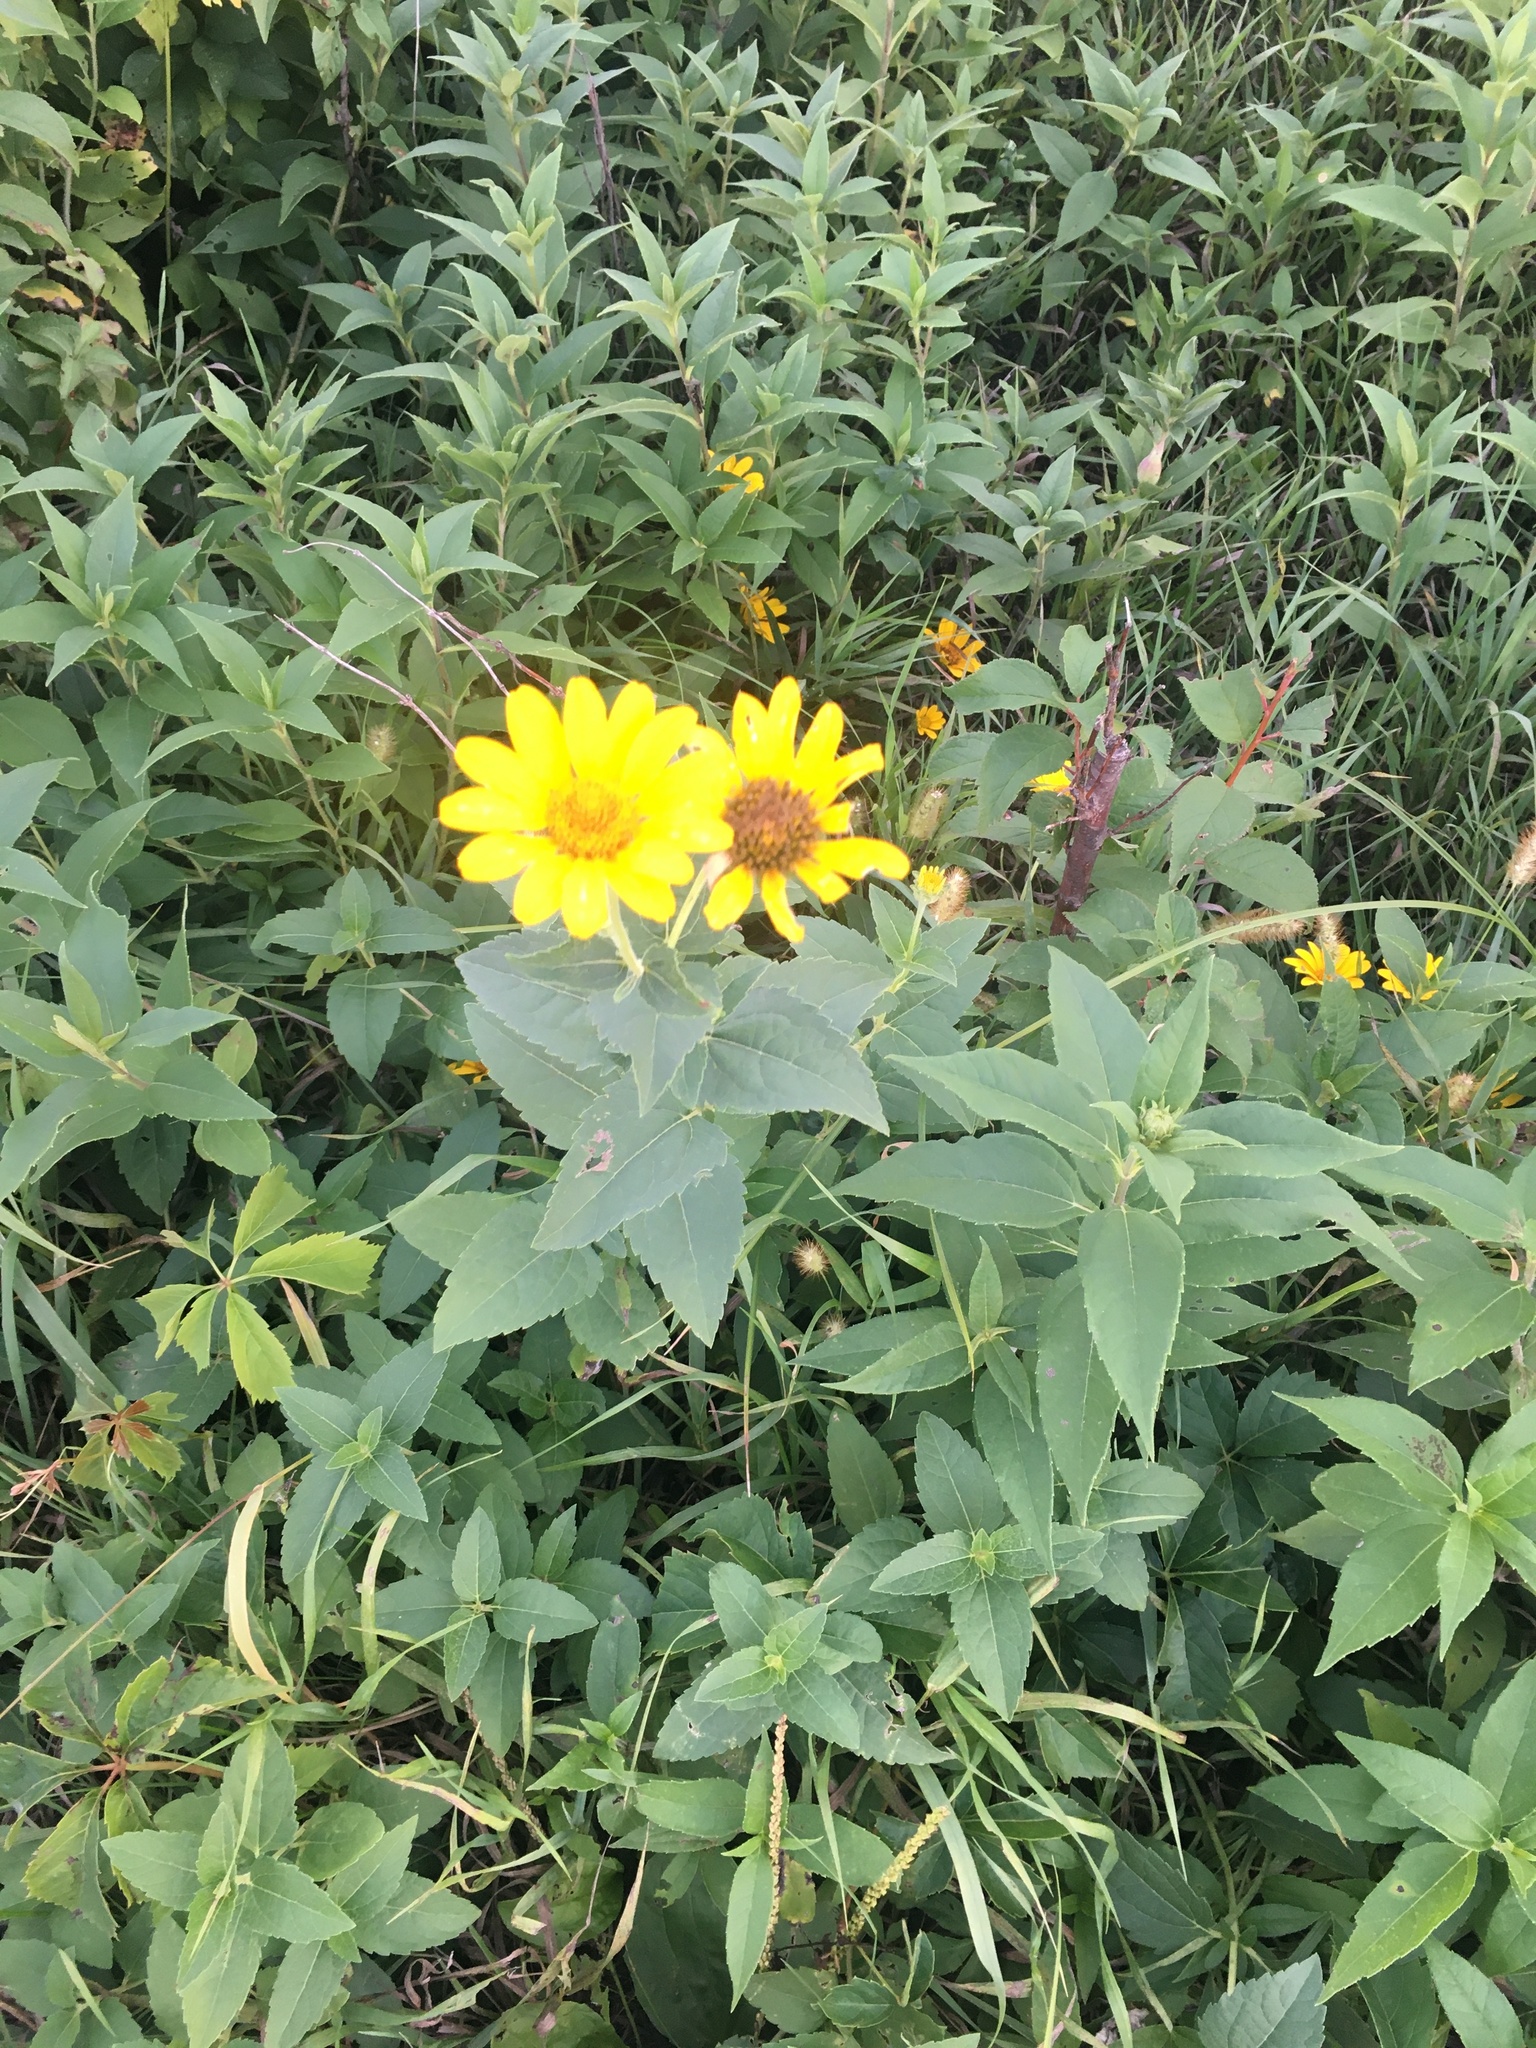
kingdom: Plantae
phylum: Tracheophyta
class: Magnoliopsida
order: Asterales
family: Asteraceae
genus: Heliopsis
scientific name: Heliopsis helianthoides
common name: False sunflower
